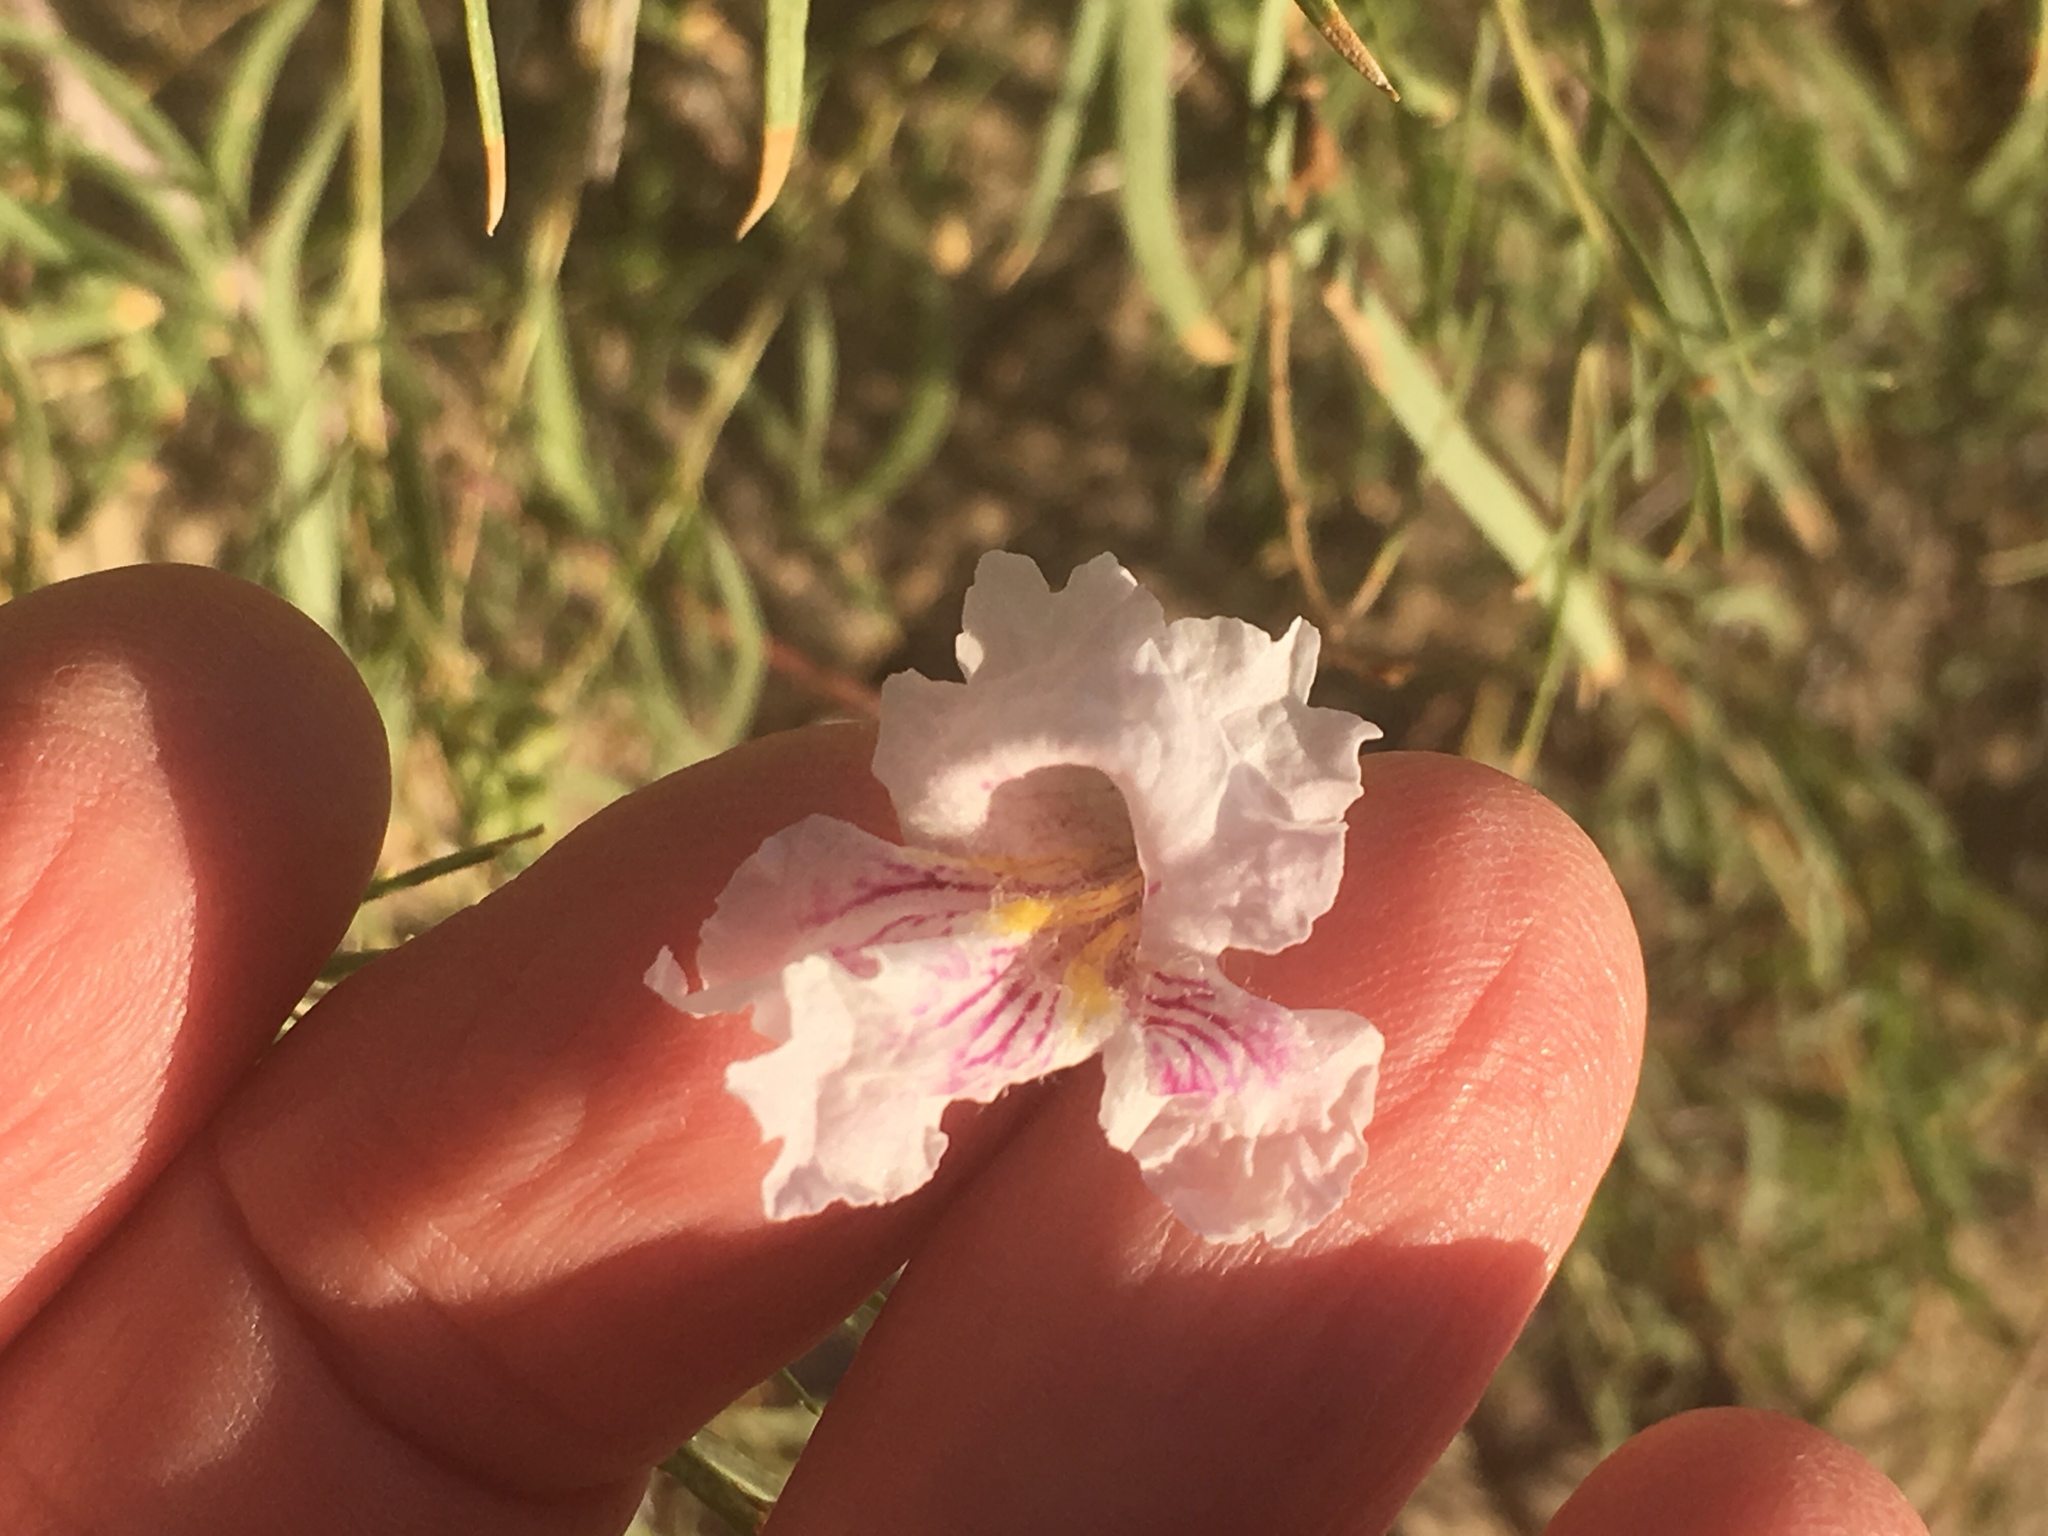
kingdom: Plantae
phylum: Tracheophyta
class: Magnoliopsida
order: Lamiales
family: Bignoniaceae
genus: Chilopsis
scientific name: Chilopsis linearis
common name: Desert-willow
